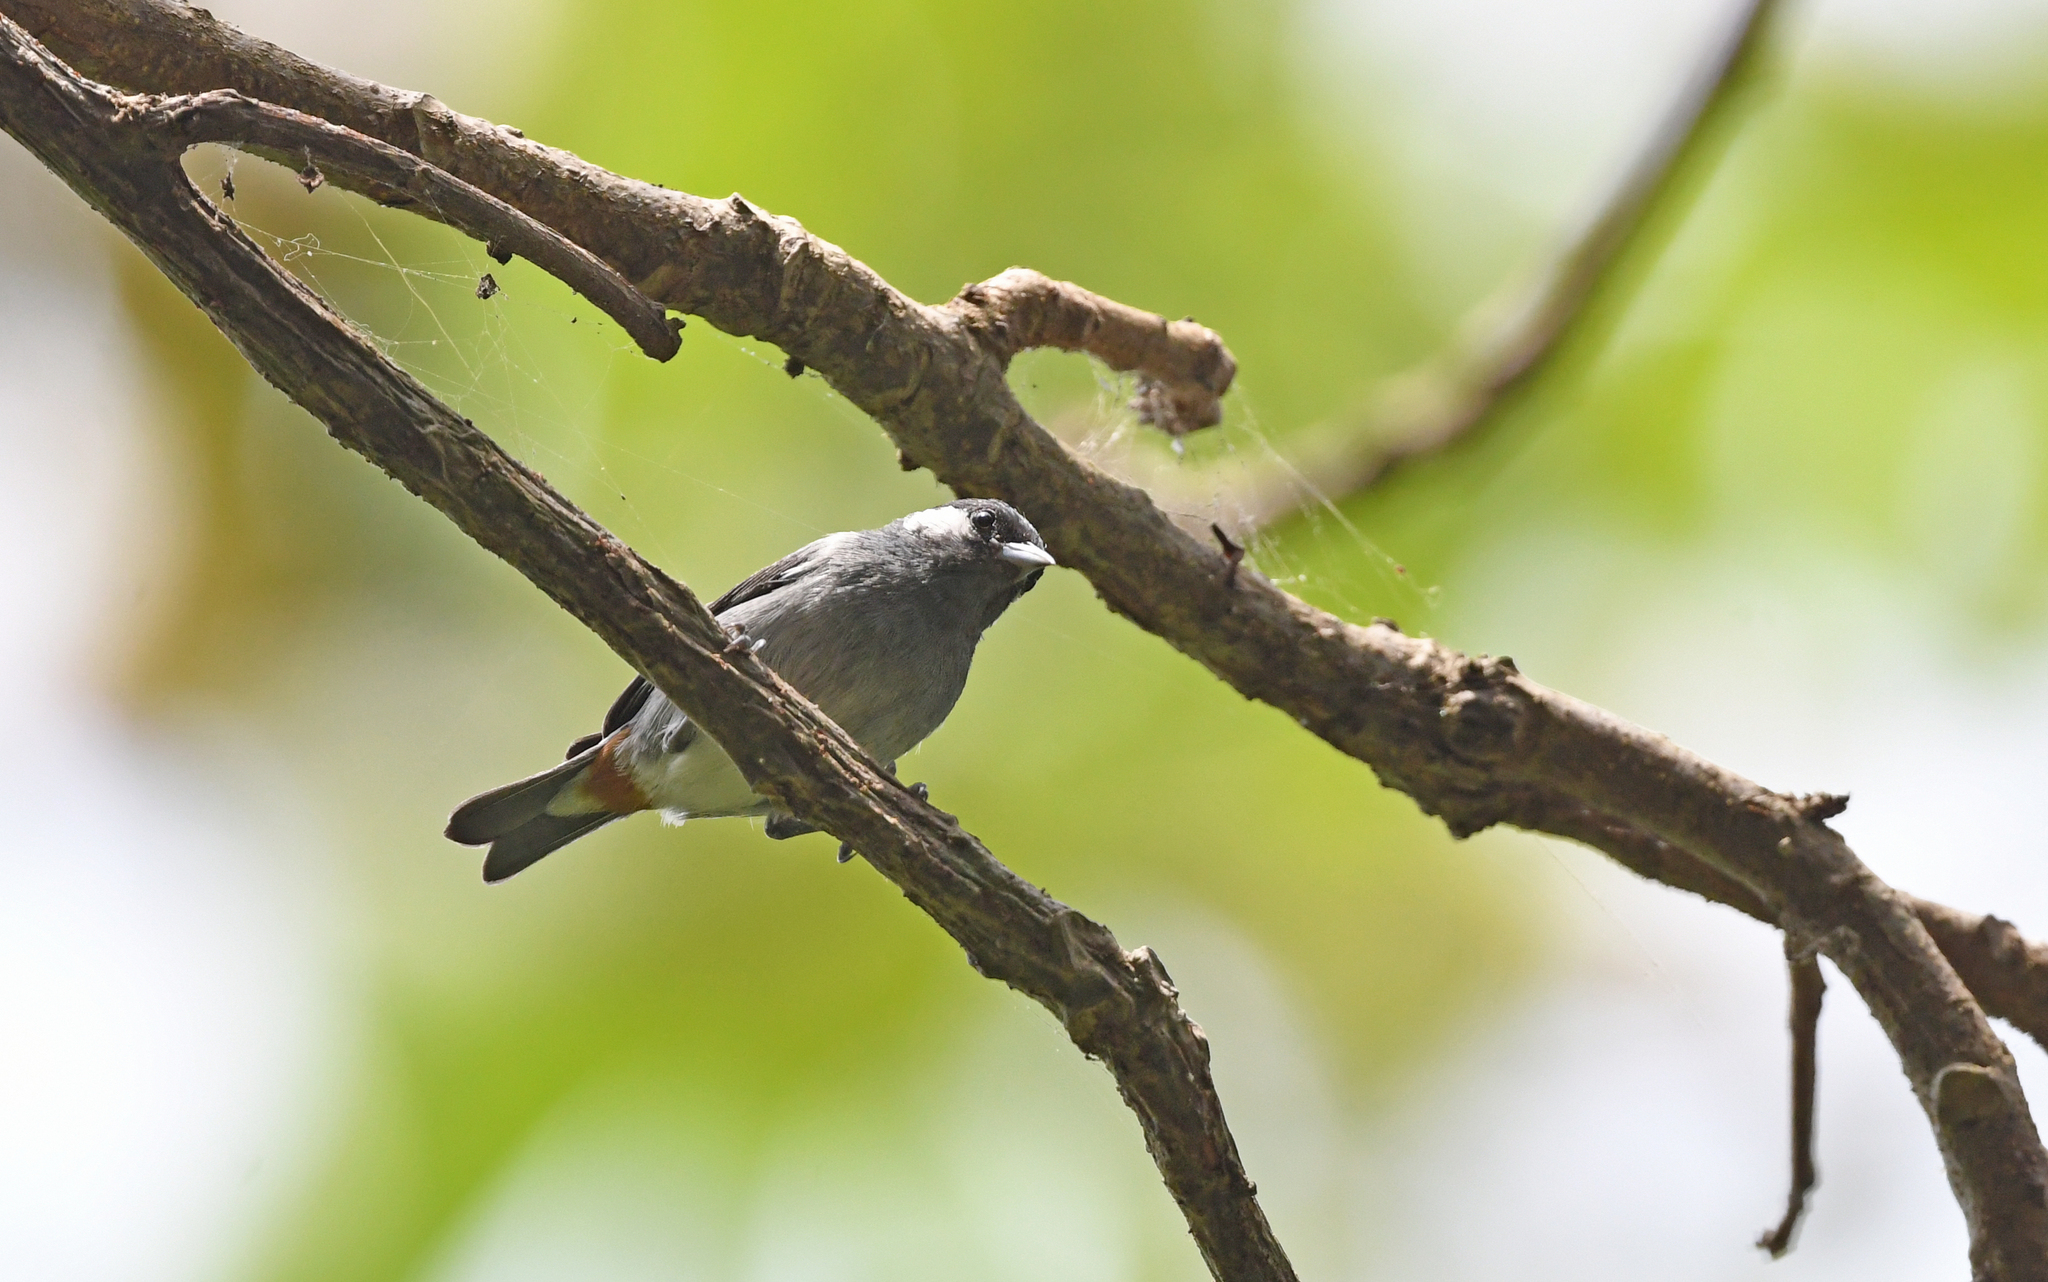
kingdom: Animalia
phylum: Chordata
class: Aves
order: Passeriformes
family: Thraupidae
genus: Conirostrum
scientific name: Conirostrum leucogenys
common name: White-eared conebill
